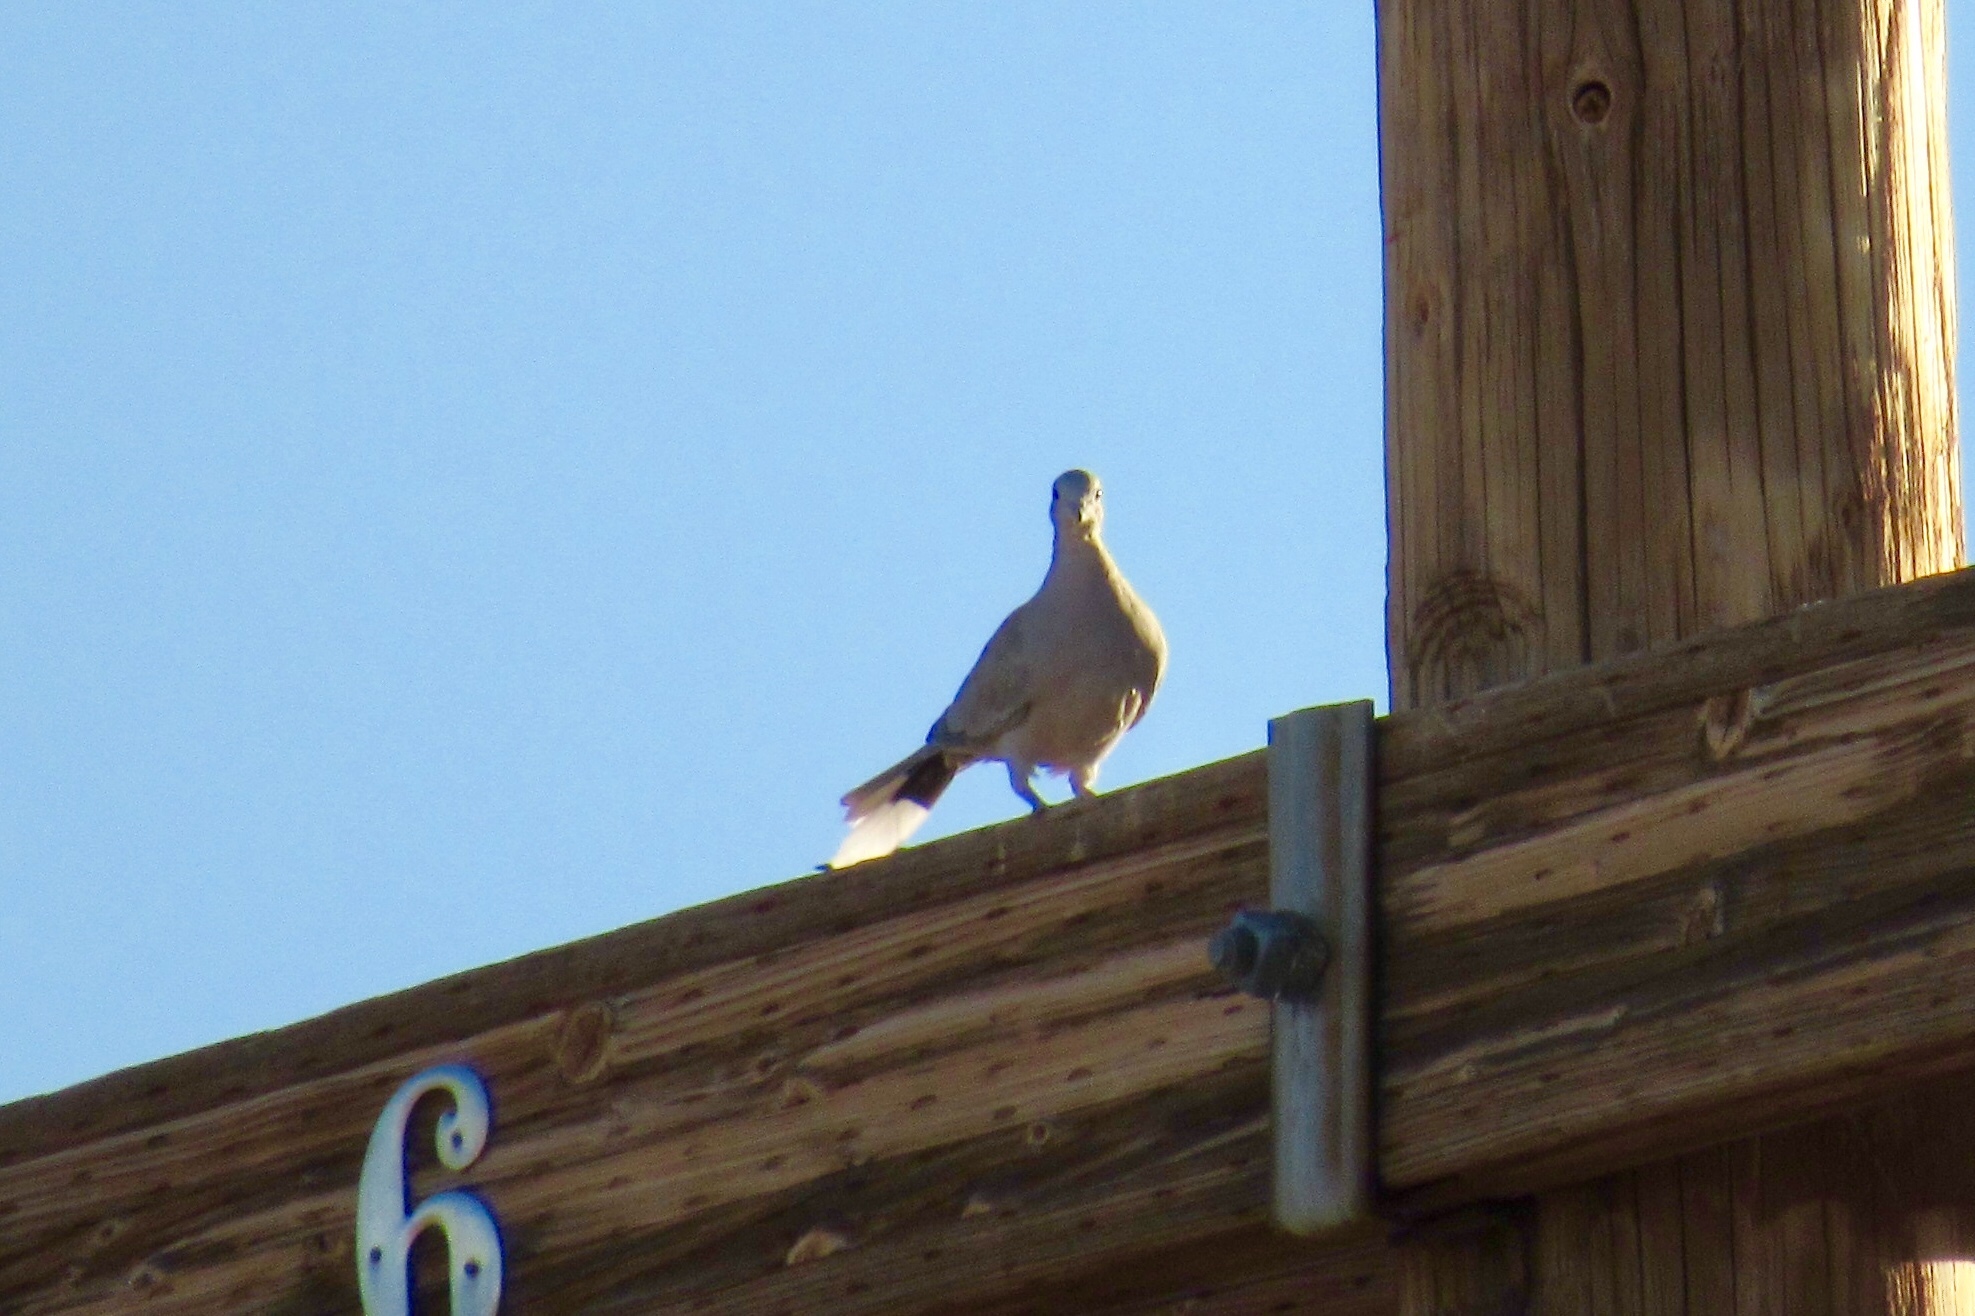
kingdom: Animalia
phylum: Chordata
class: Aves
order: Columbiformes
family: Columbidae
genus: Streptopelia
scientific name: Streptopelia decaocto
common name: Eurasian collared dove
